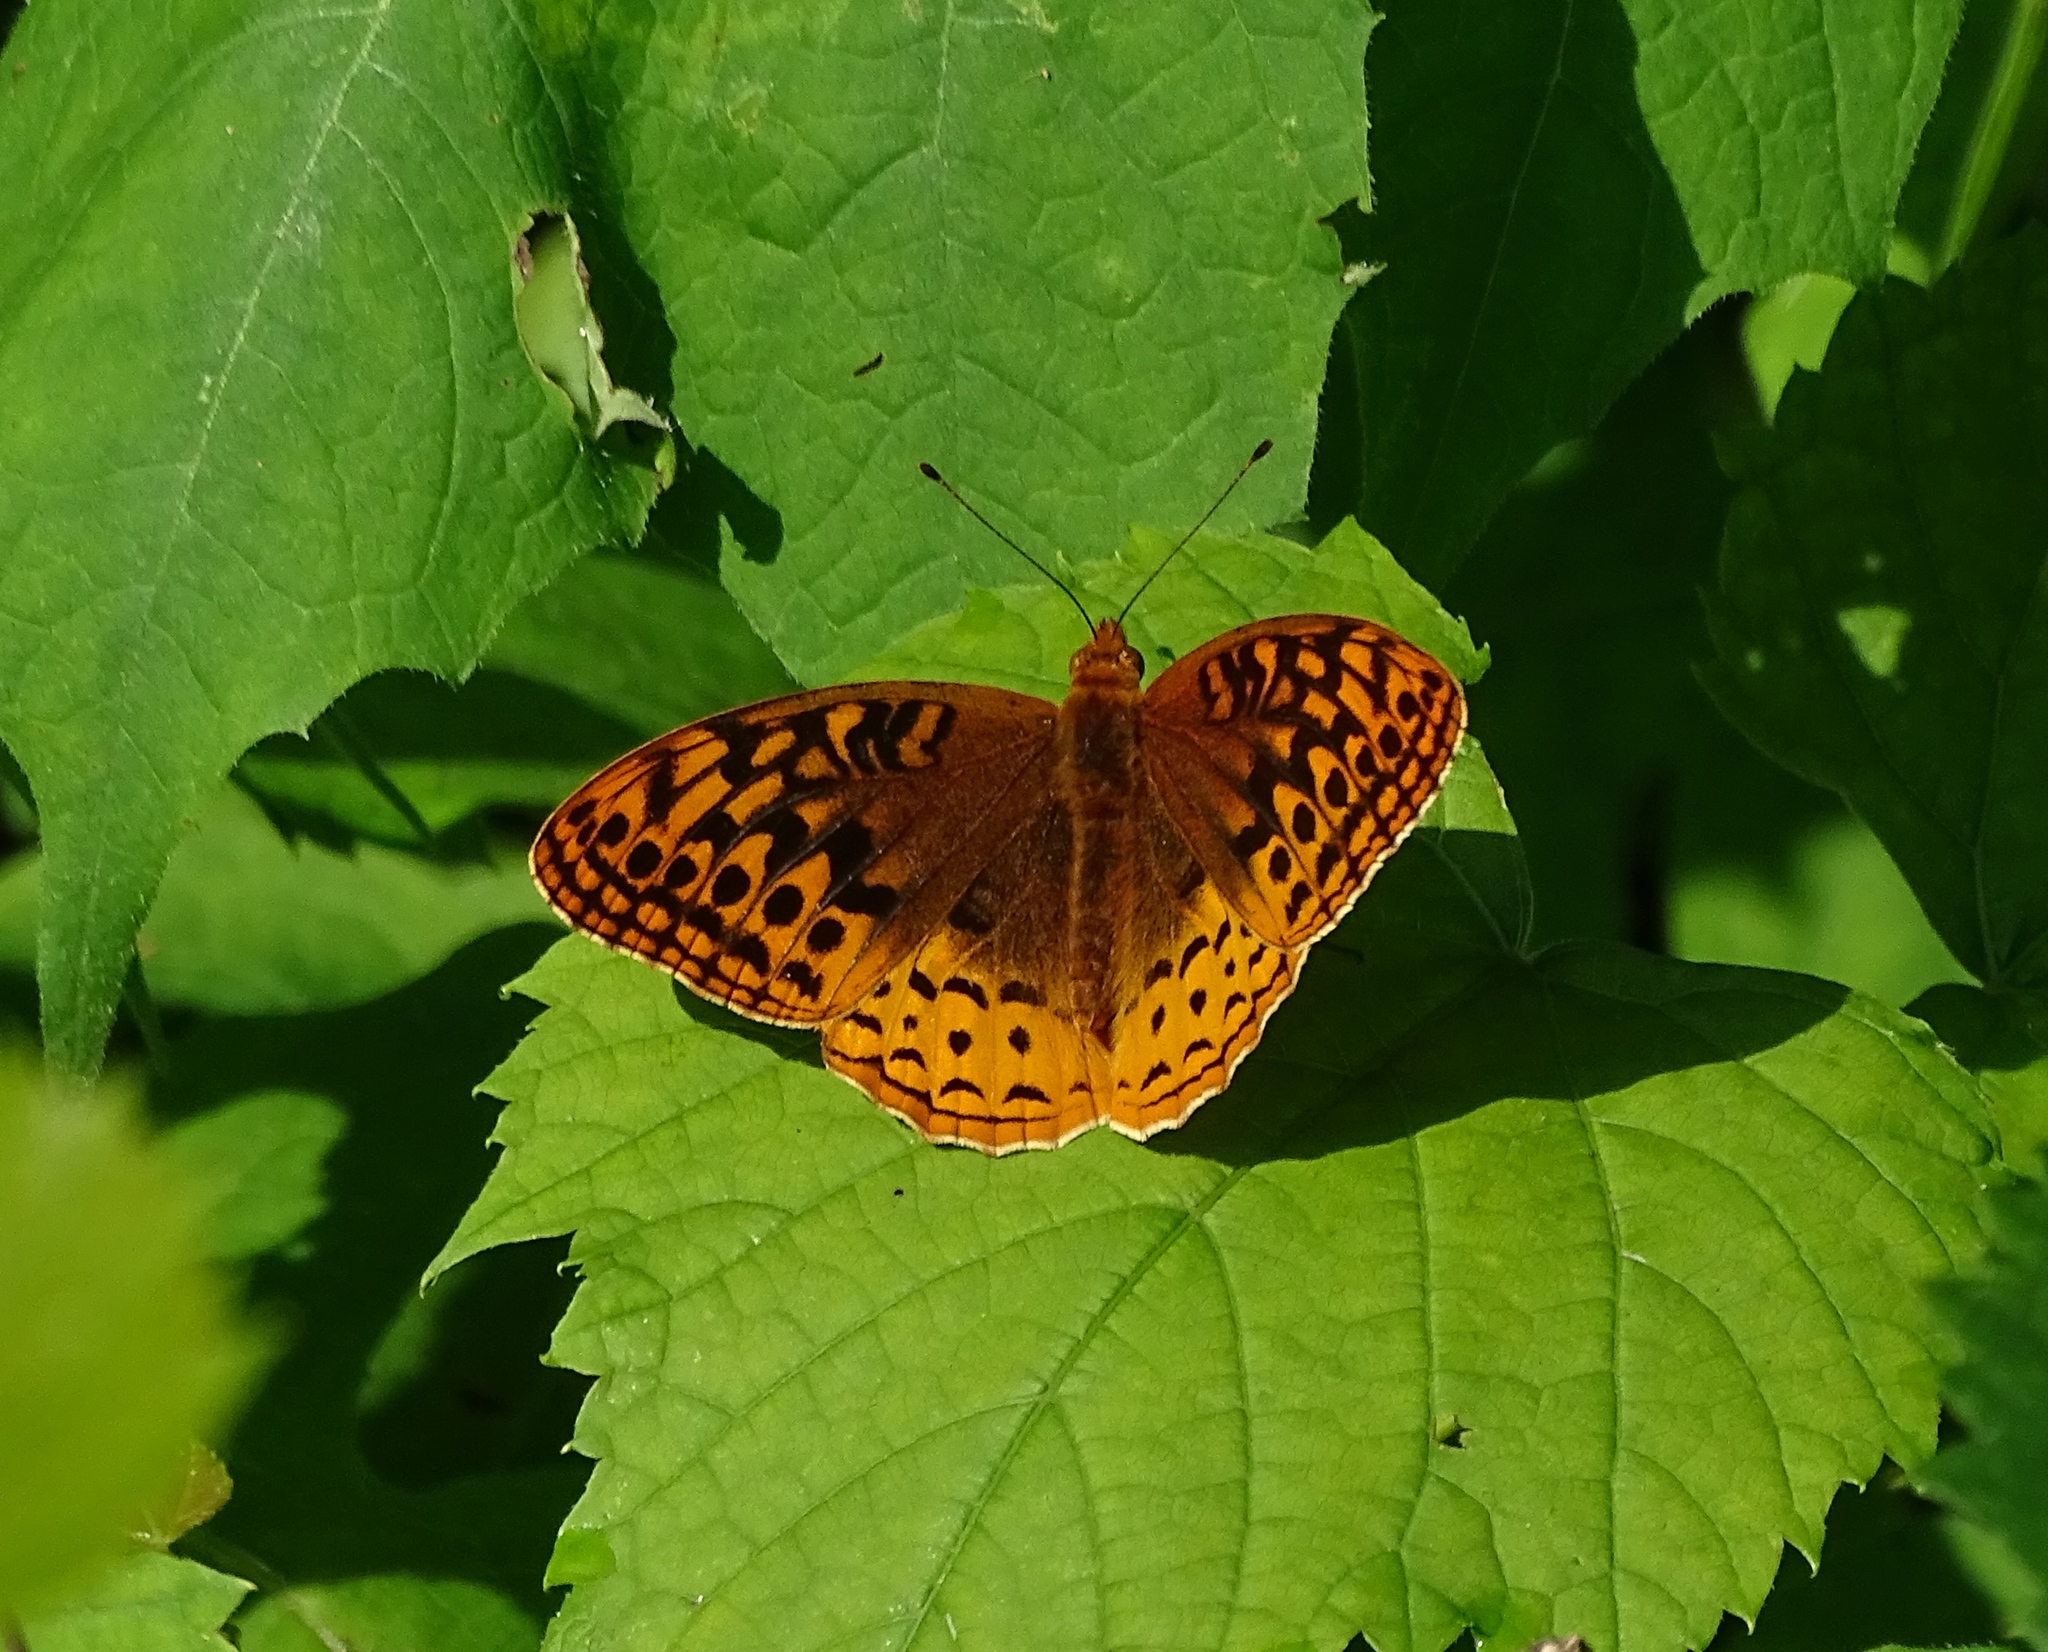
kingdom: Animalia
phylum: Arthropoda
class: Insecta
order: Lepidoptera
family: Nymphalidae
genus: Speyeria
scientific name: Speyeria cybele
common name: Great spangled fritillary
